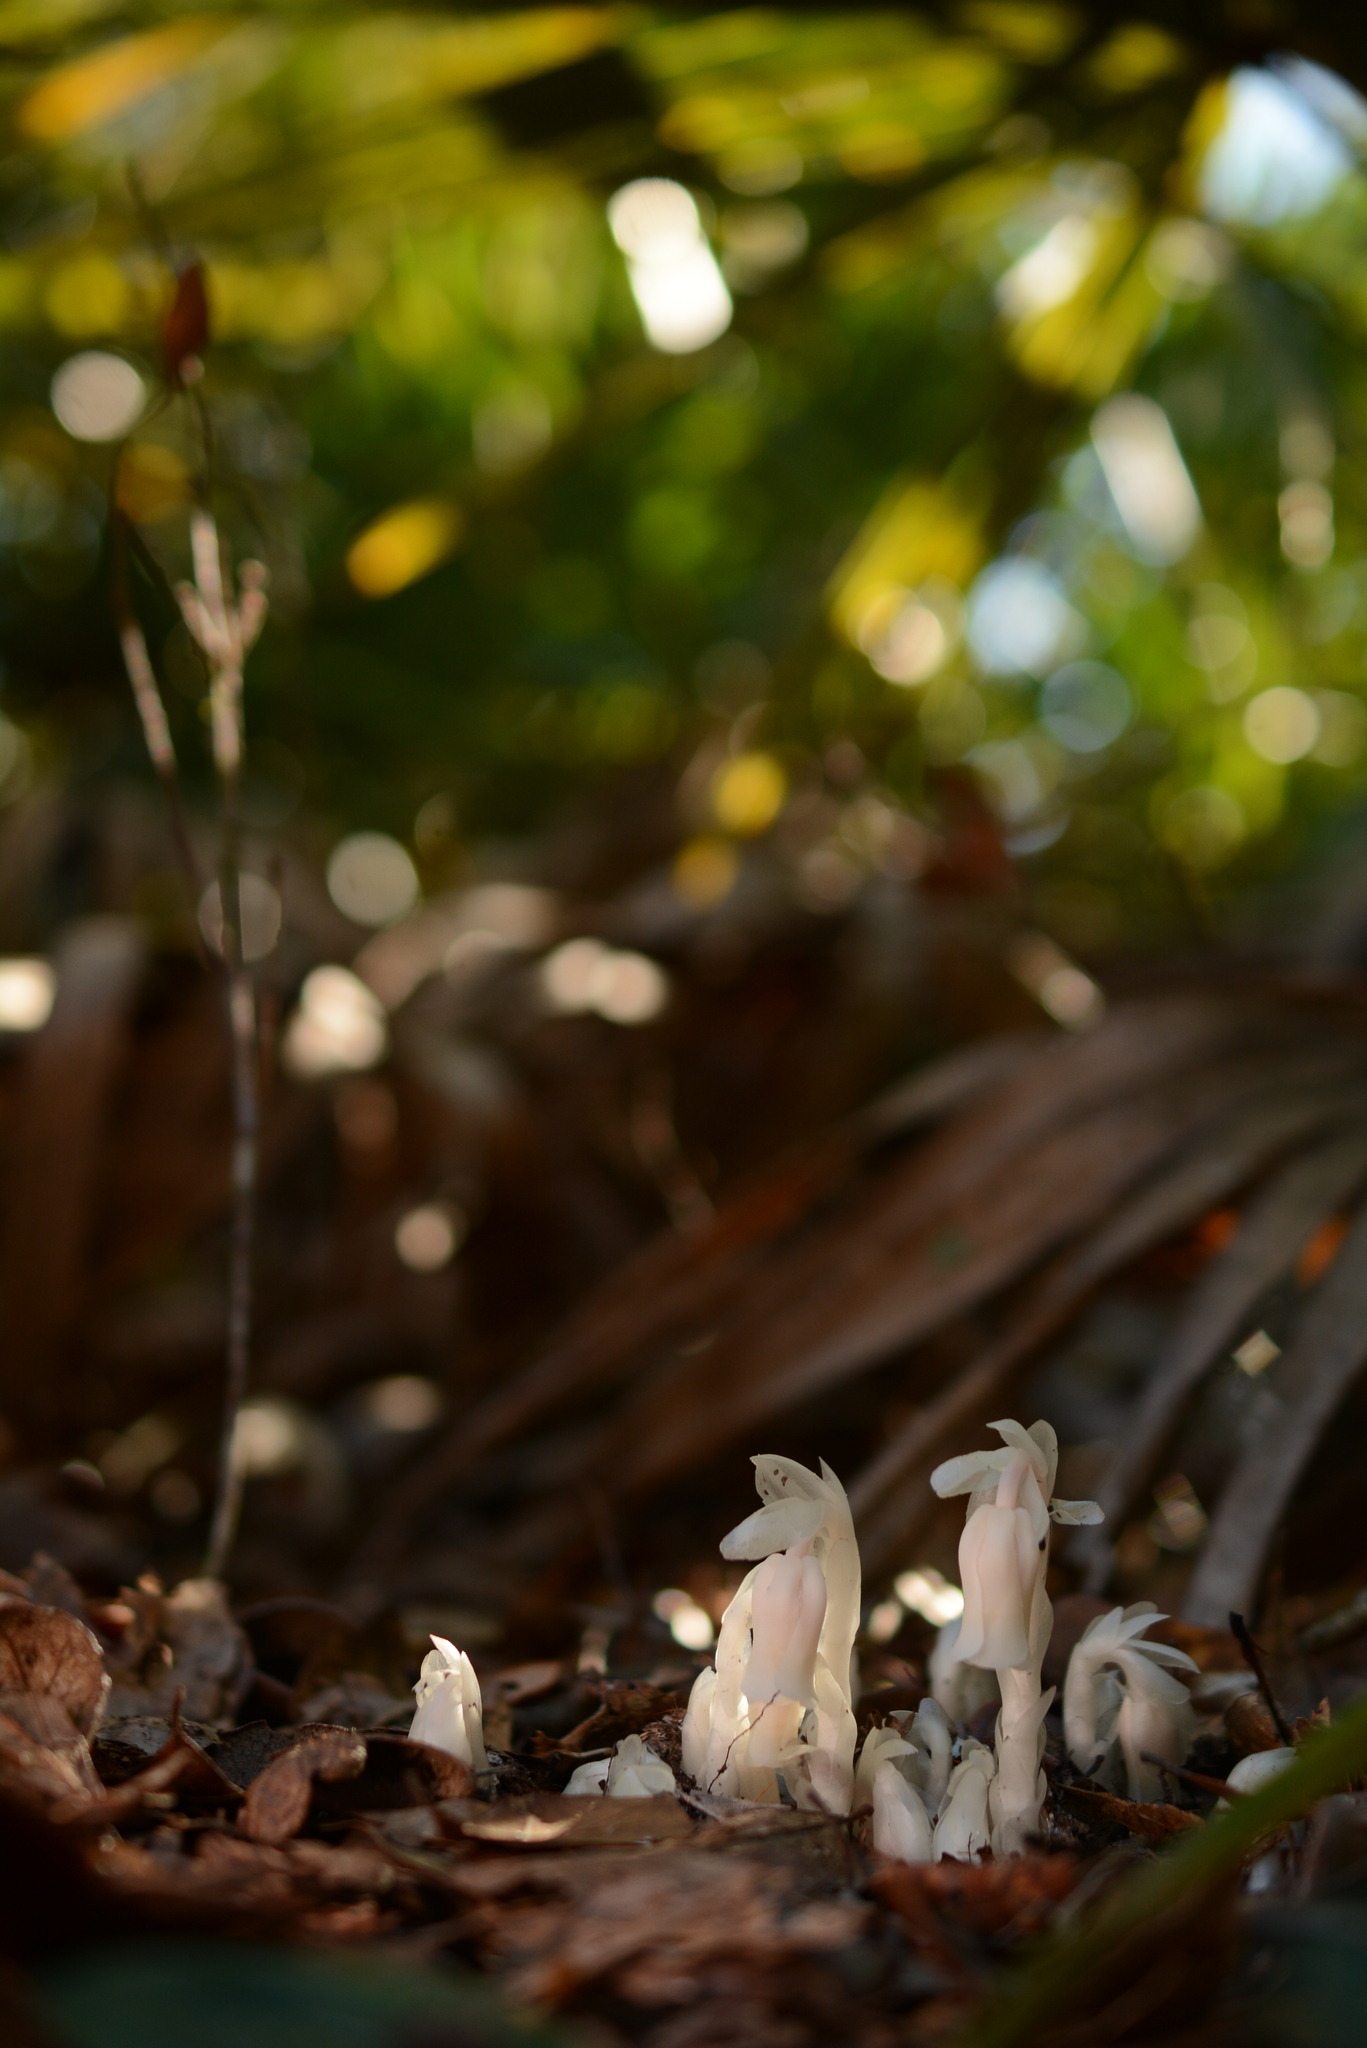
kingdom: Plantae
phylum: Tracheophyta
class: Magnoliopsida
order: Ericales
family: Ericaceae
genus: Monotropa
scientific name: Monotropa uniflora
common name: Convulsion root
